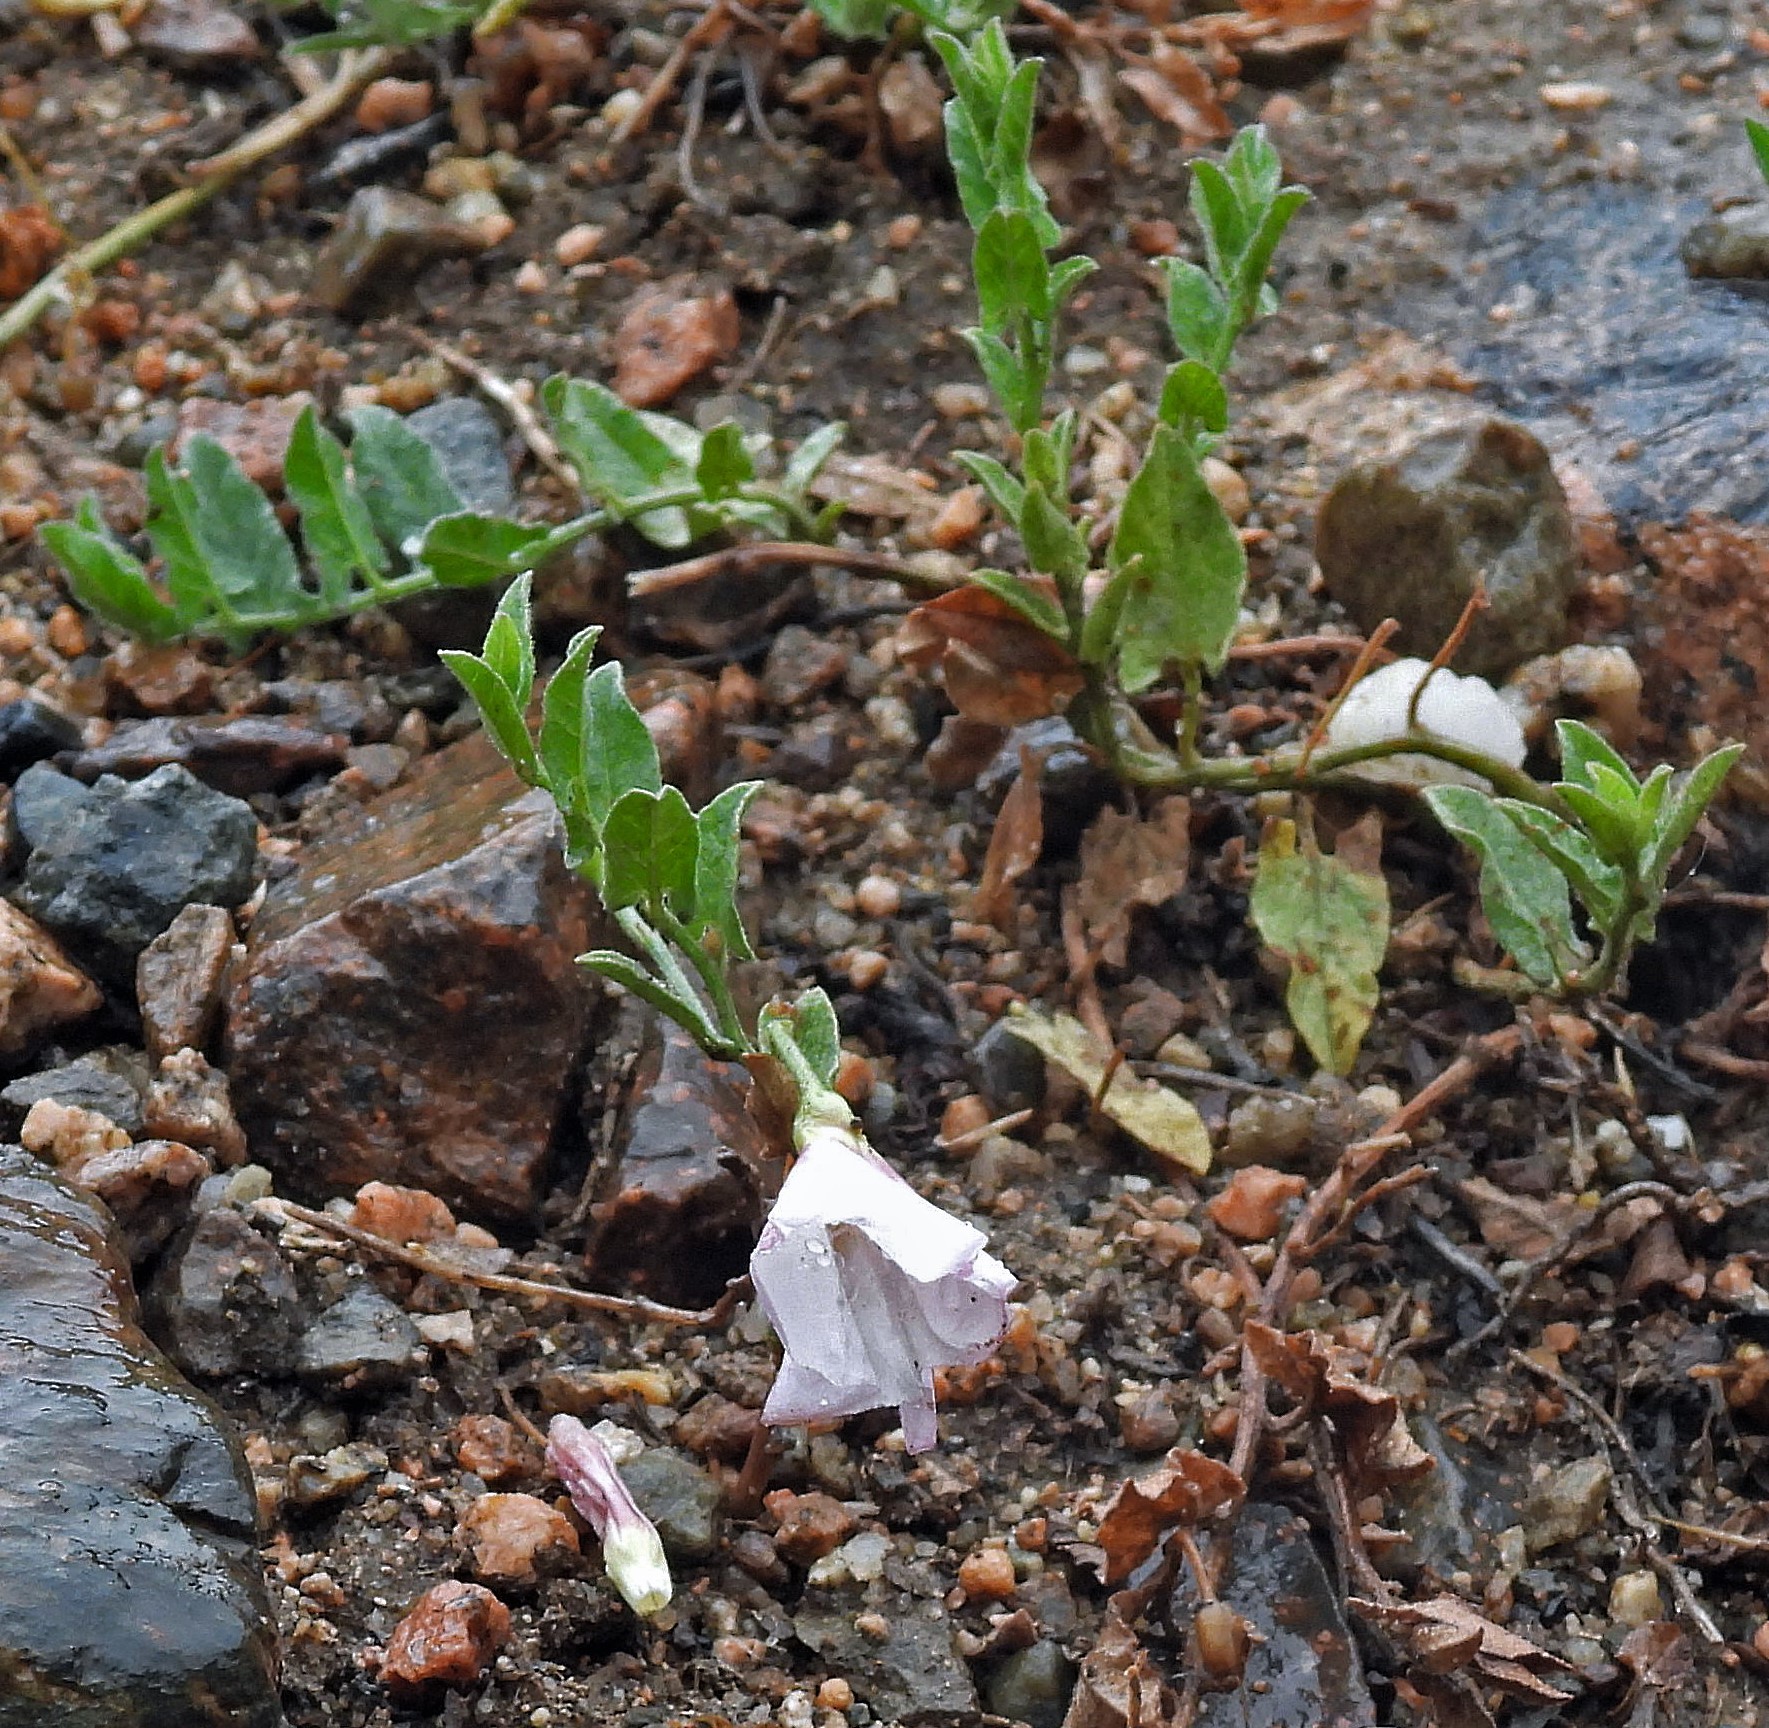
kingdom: Plantae
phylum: Tracheophyta
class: Magnoliopsida
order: Solanales
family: Convolvulaceae
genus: Convolvulus
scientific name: Convolvulus arvensis
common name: Field bindweed
